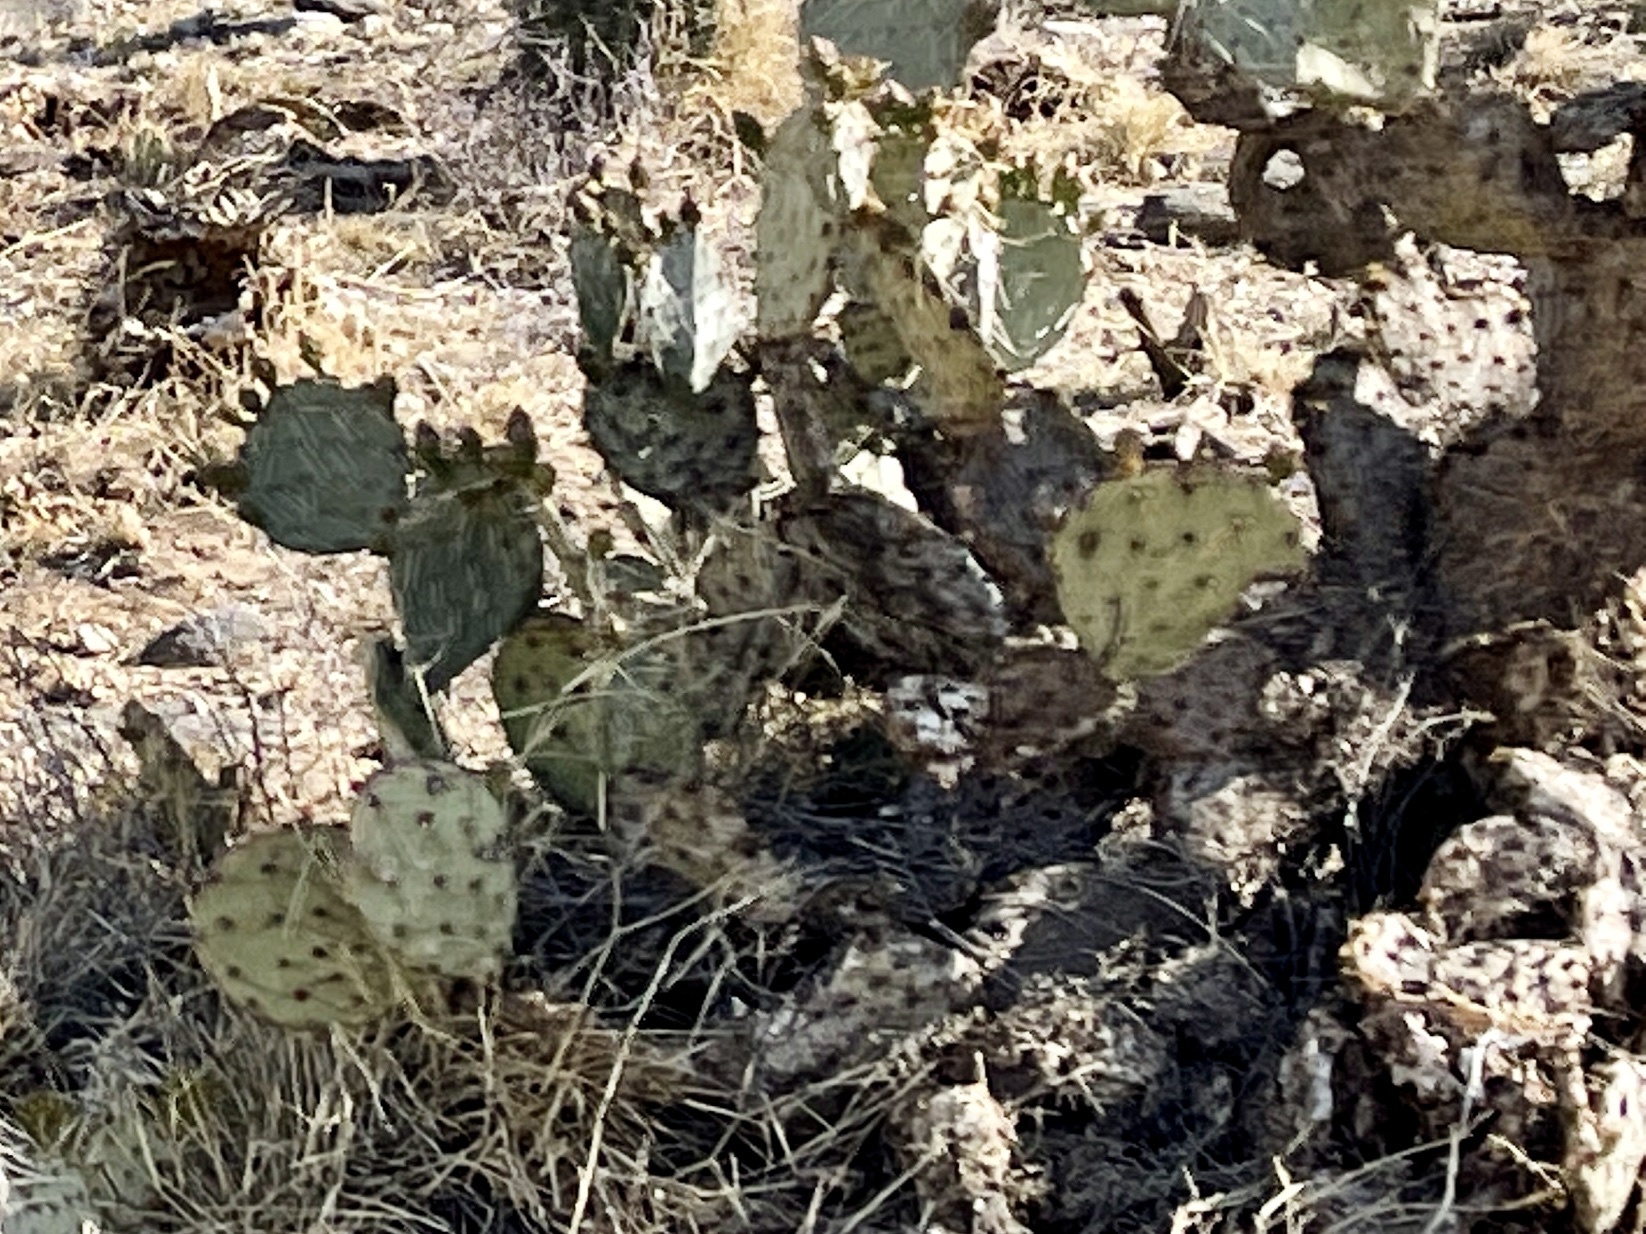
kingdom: Plantae
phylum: Tracheophyta
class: Magnoliopsida
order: Caryophyllales
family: Cactaceae
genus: Opuntia
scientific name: Opuntia engelmannii
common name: Cactus-apple
